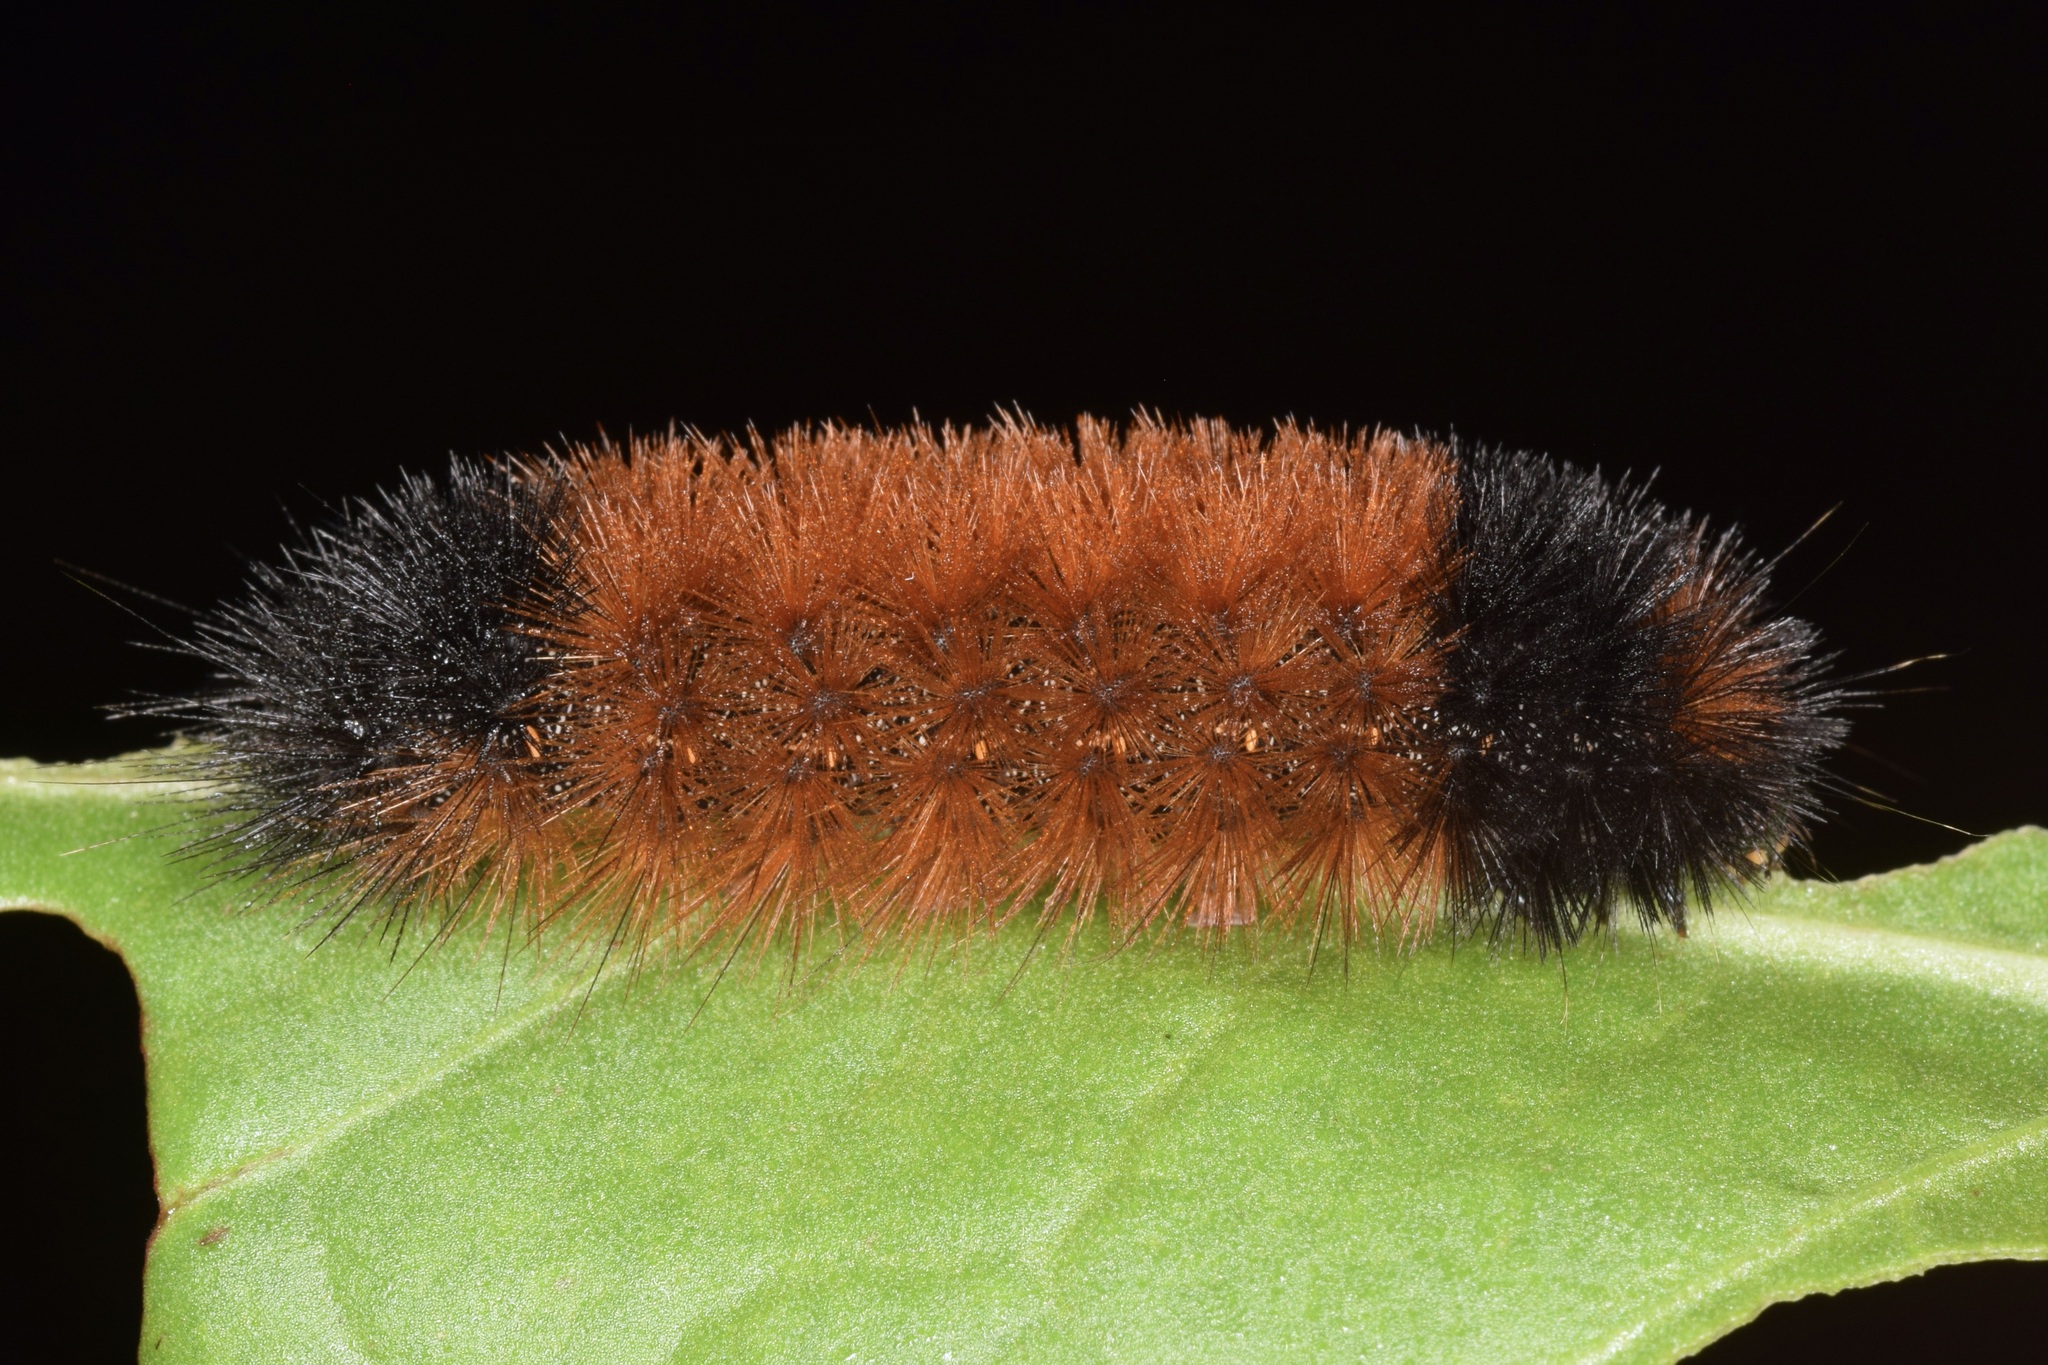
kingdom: Animalia
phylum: Arthropoda
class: Insecta
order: Lepidoptera
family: Erebidae
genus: Pyrrharctia
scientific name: Pyrrharctia isabella
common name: Isabella tiger moth
